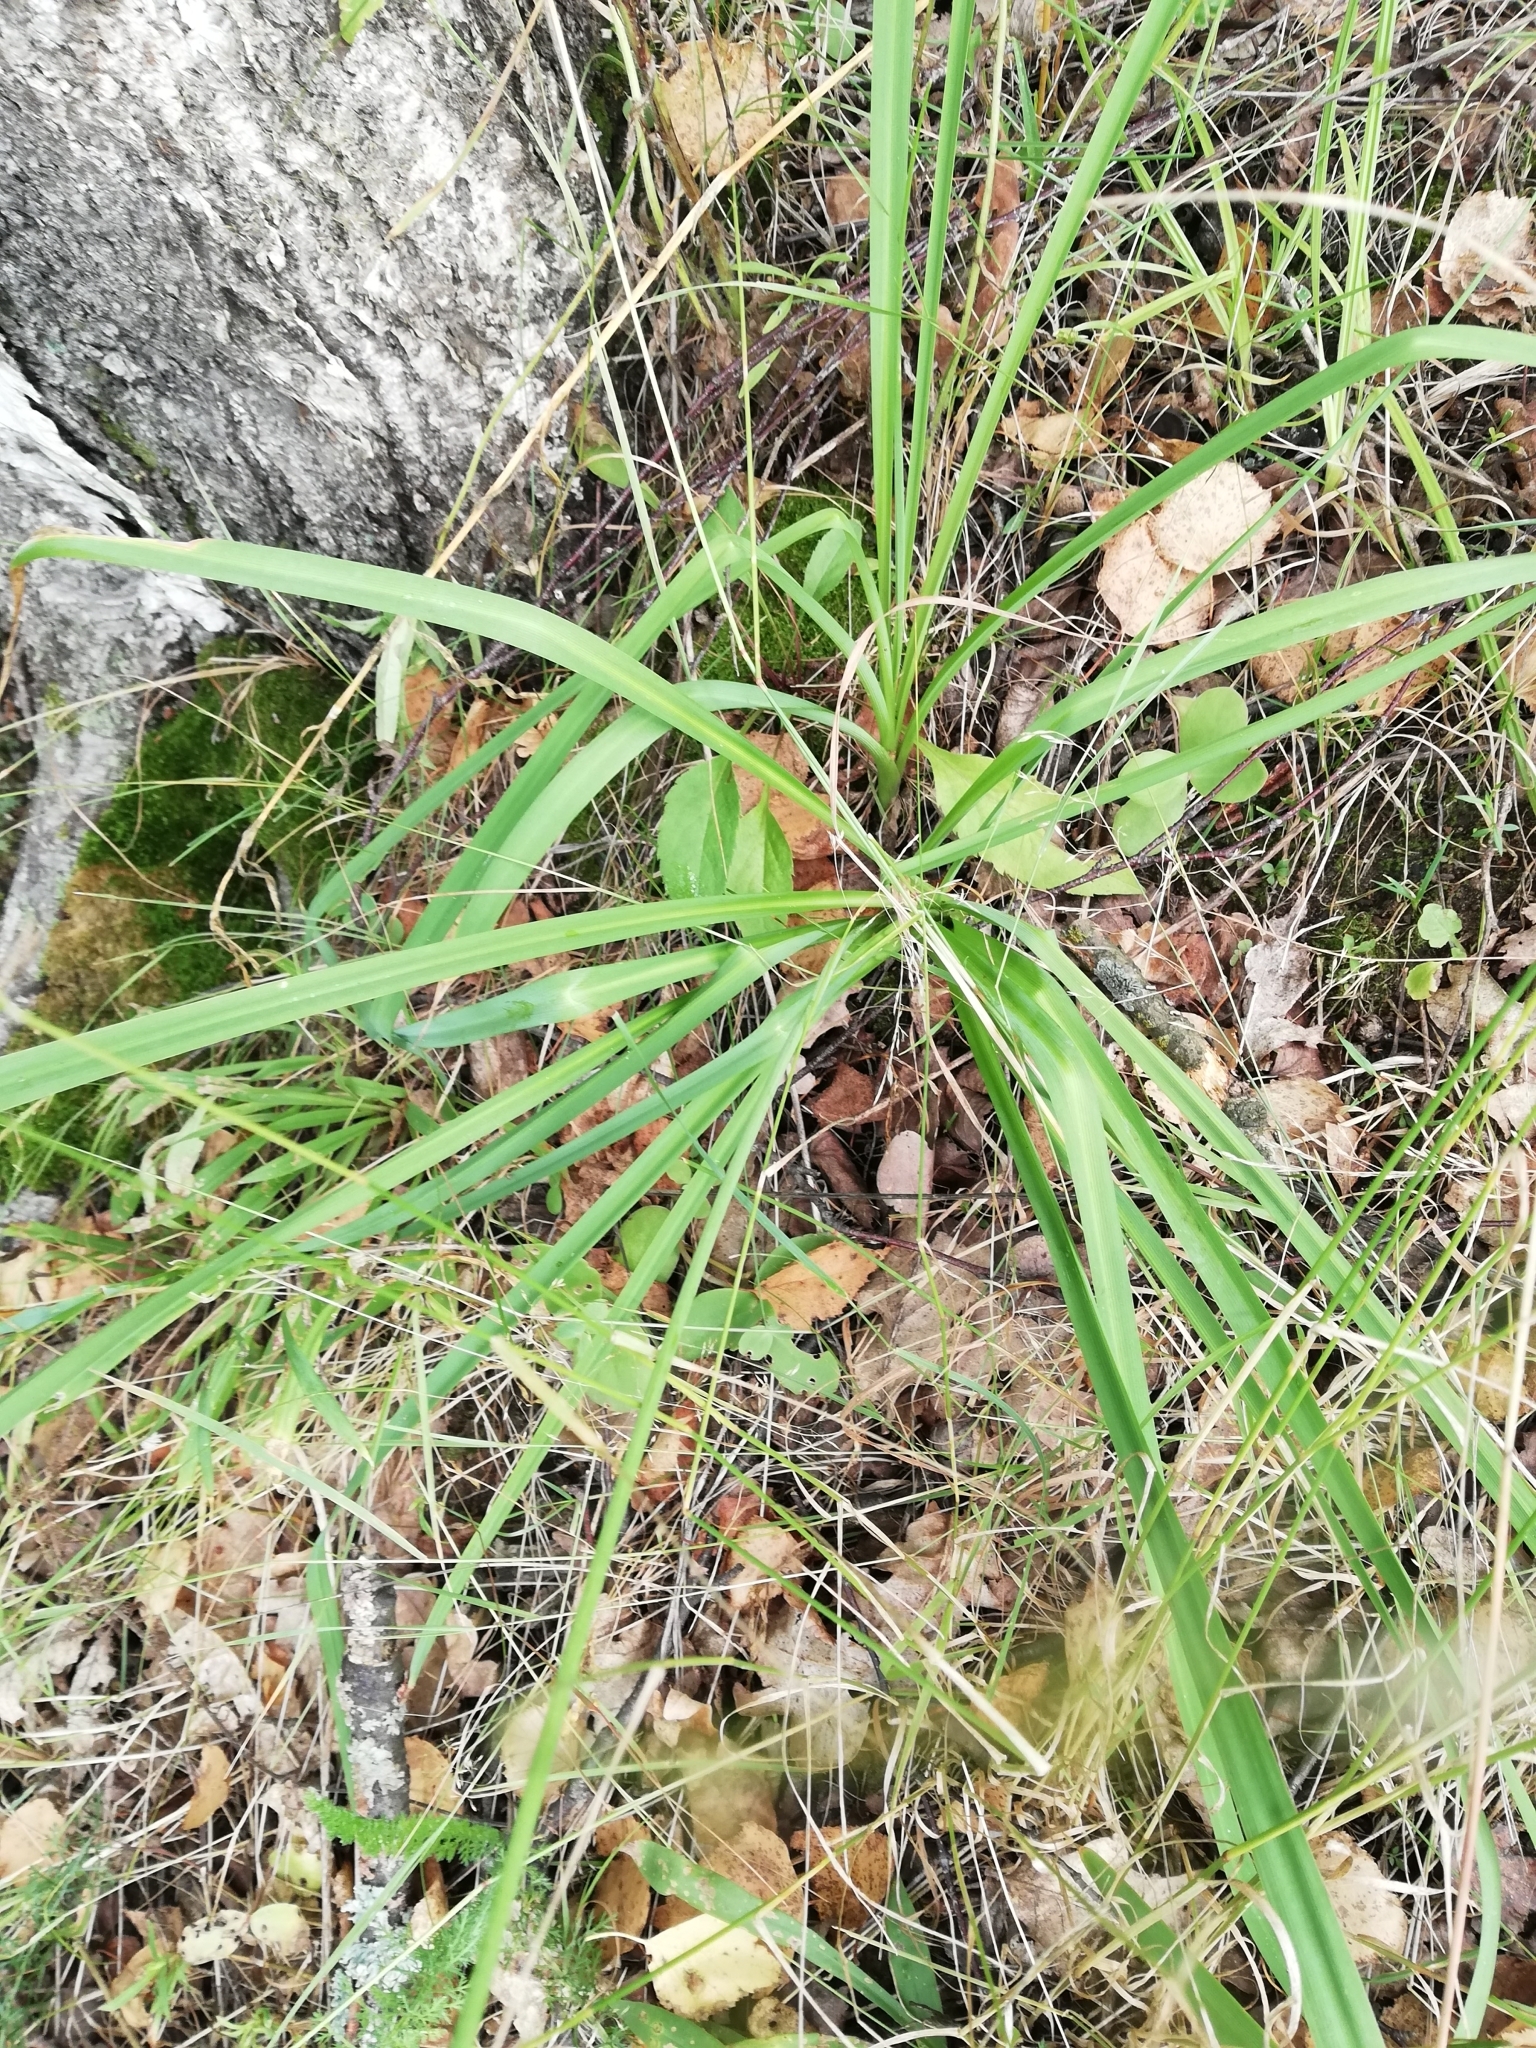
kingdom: Plantae
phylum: Tracheophyta
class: Liliopsida
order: Asparagales
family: Asparagaceae
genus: Anthericum
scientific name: Anthericum ramosum
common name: Branched st. bernard's-lily
